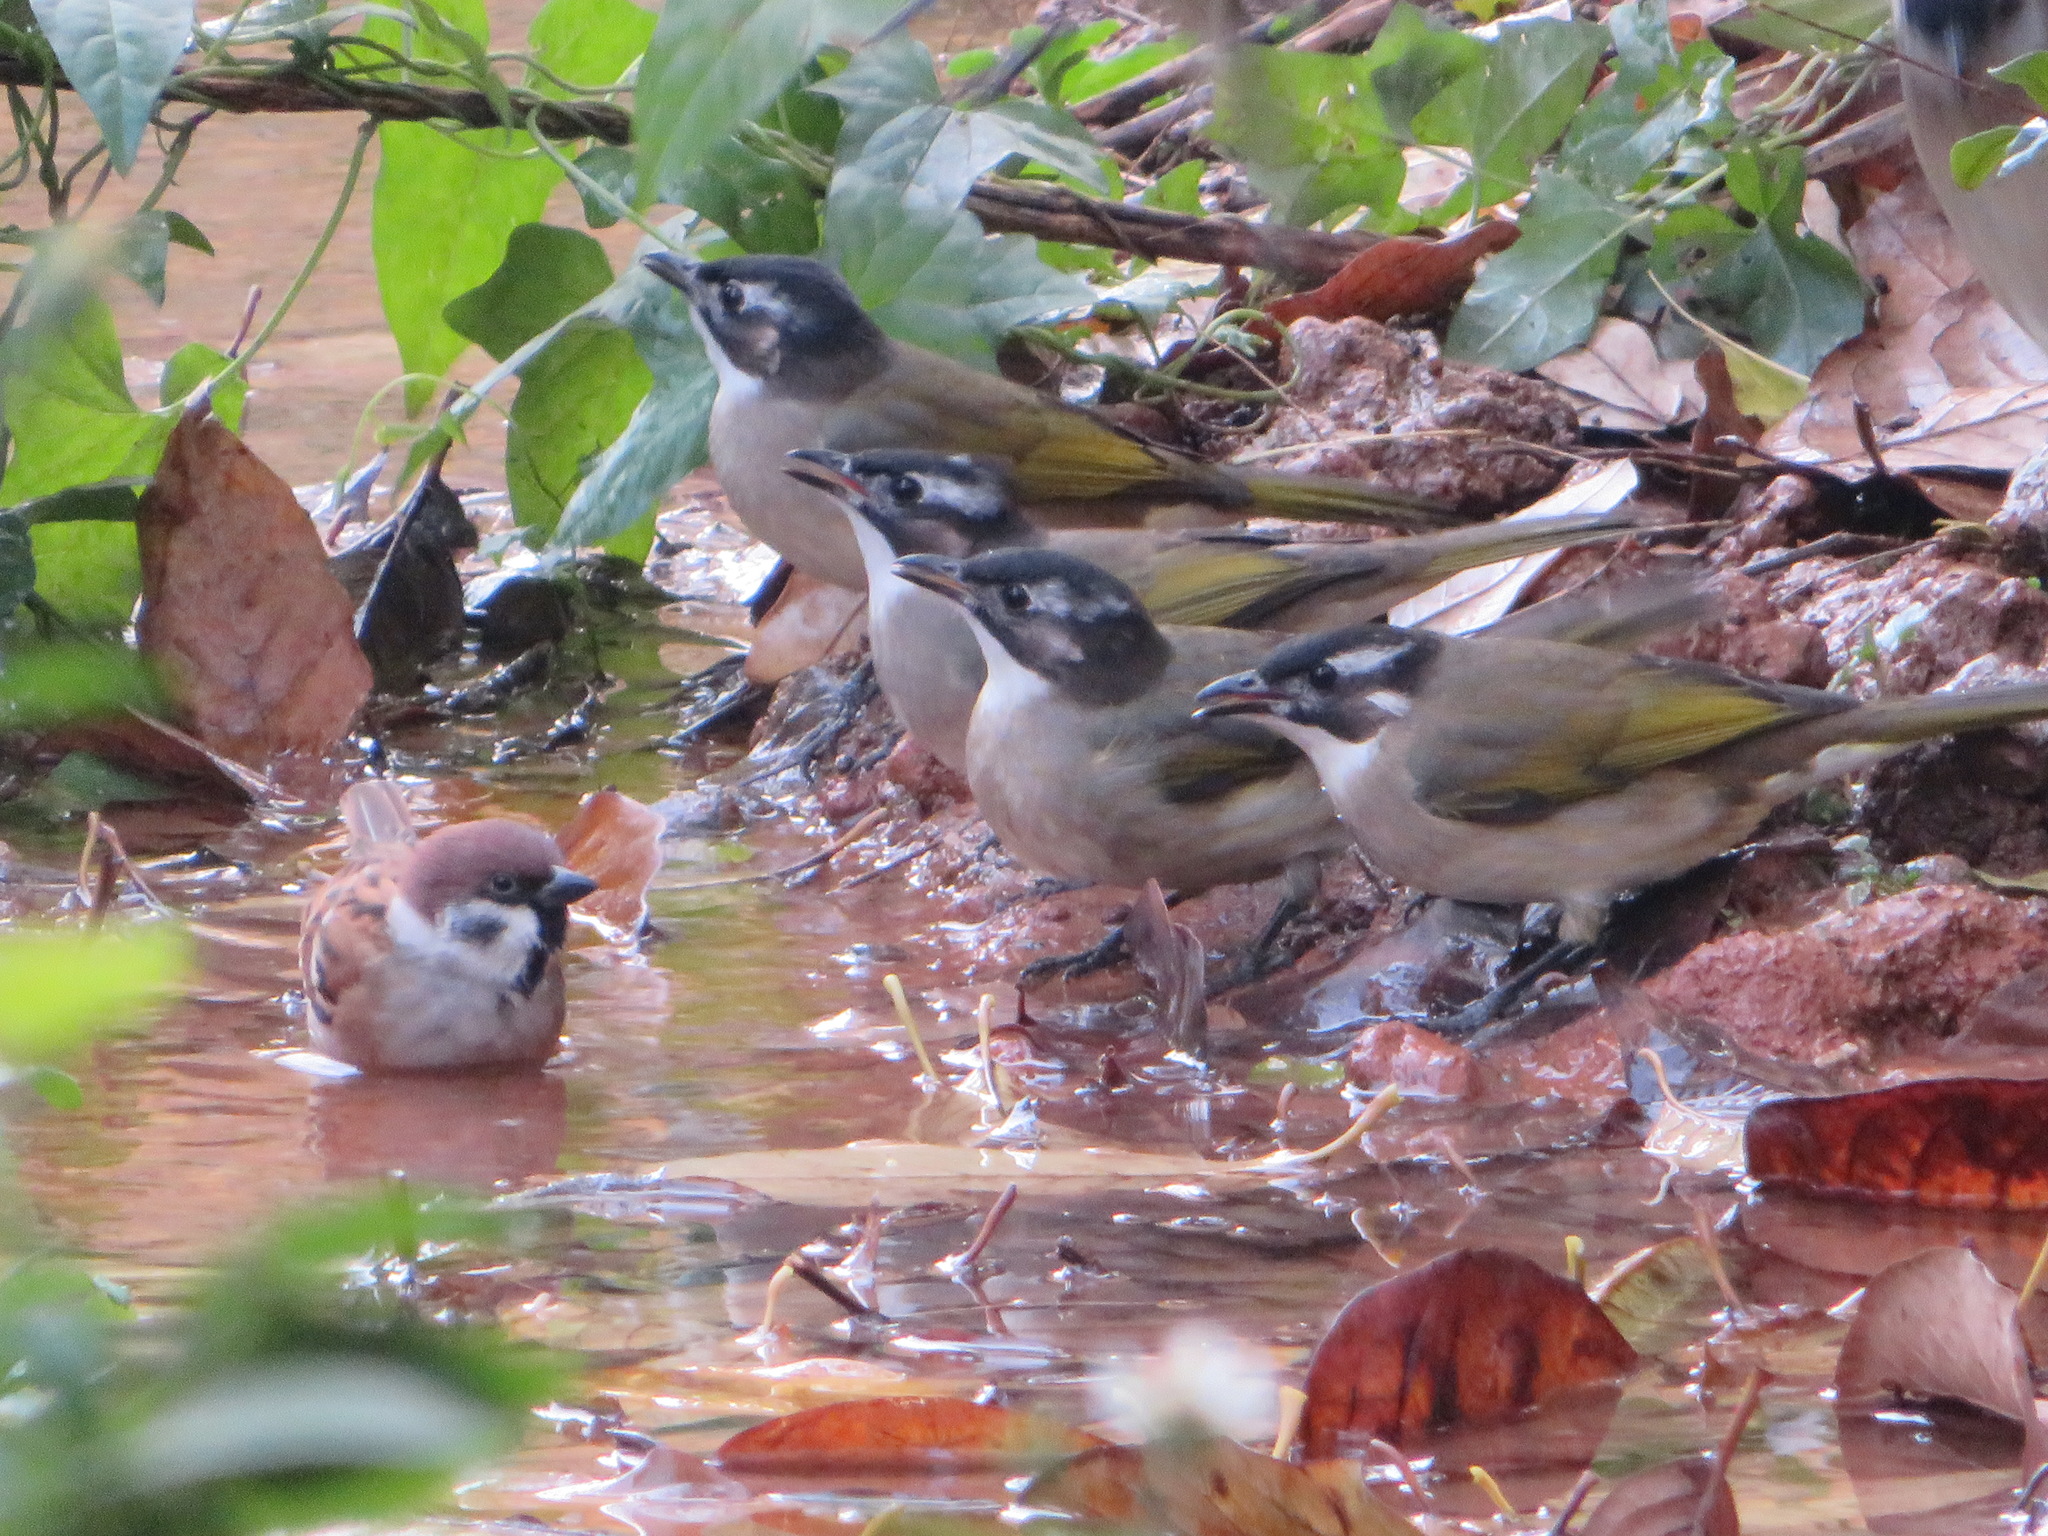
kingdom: Animalia
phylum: Chordata
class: Aves
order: Passeriformes
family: Pycnonotidae
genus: Pycnonotus
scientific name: Pycnonotus sinensis
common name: Light-vented bulbul
